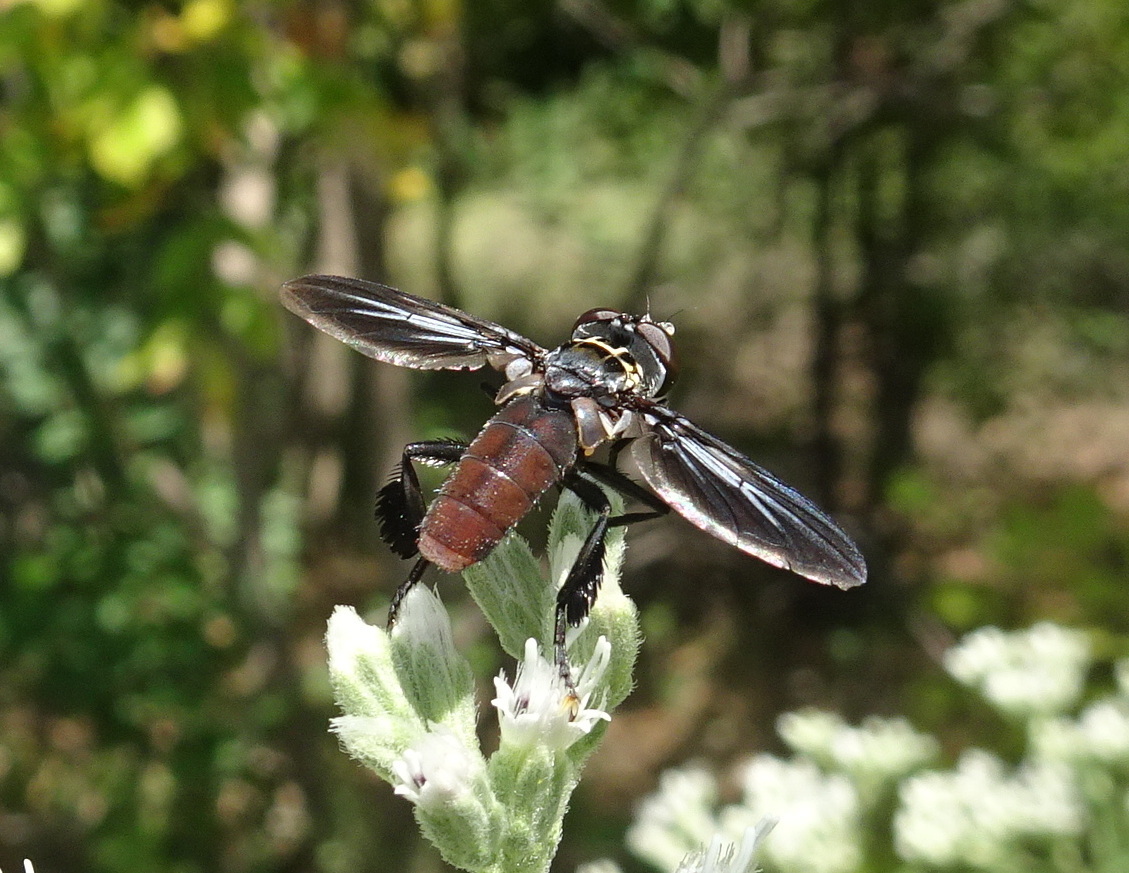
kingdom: Animalia
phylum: Arthropoda
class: Insecta
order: Diptera
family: Tachinidae
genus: Trichopoda
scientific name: Trichopoda lanipes
